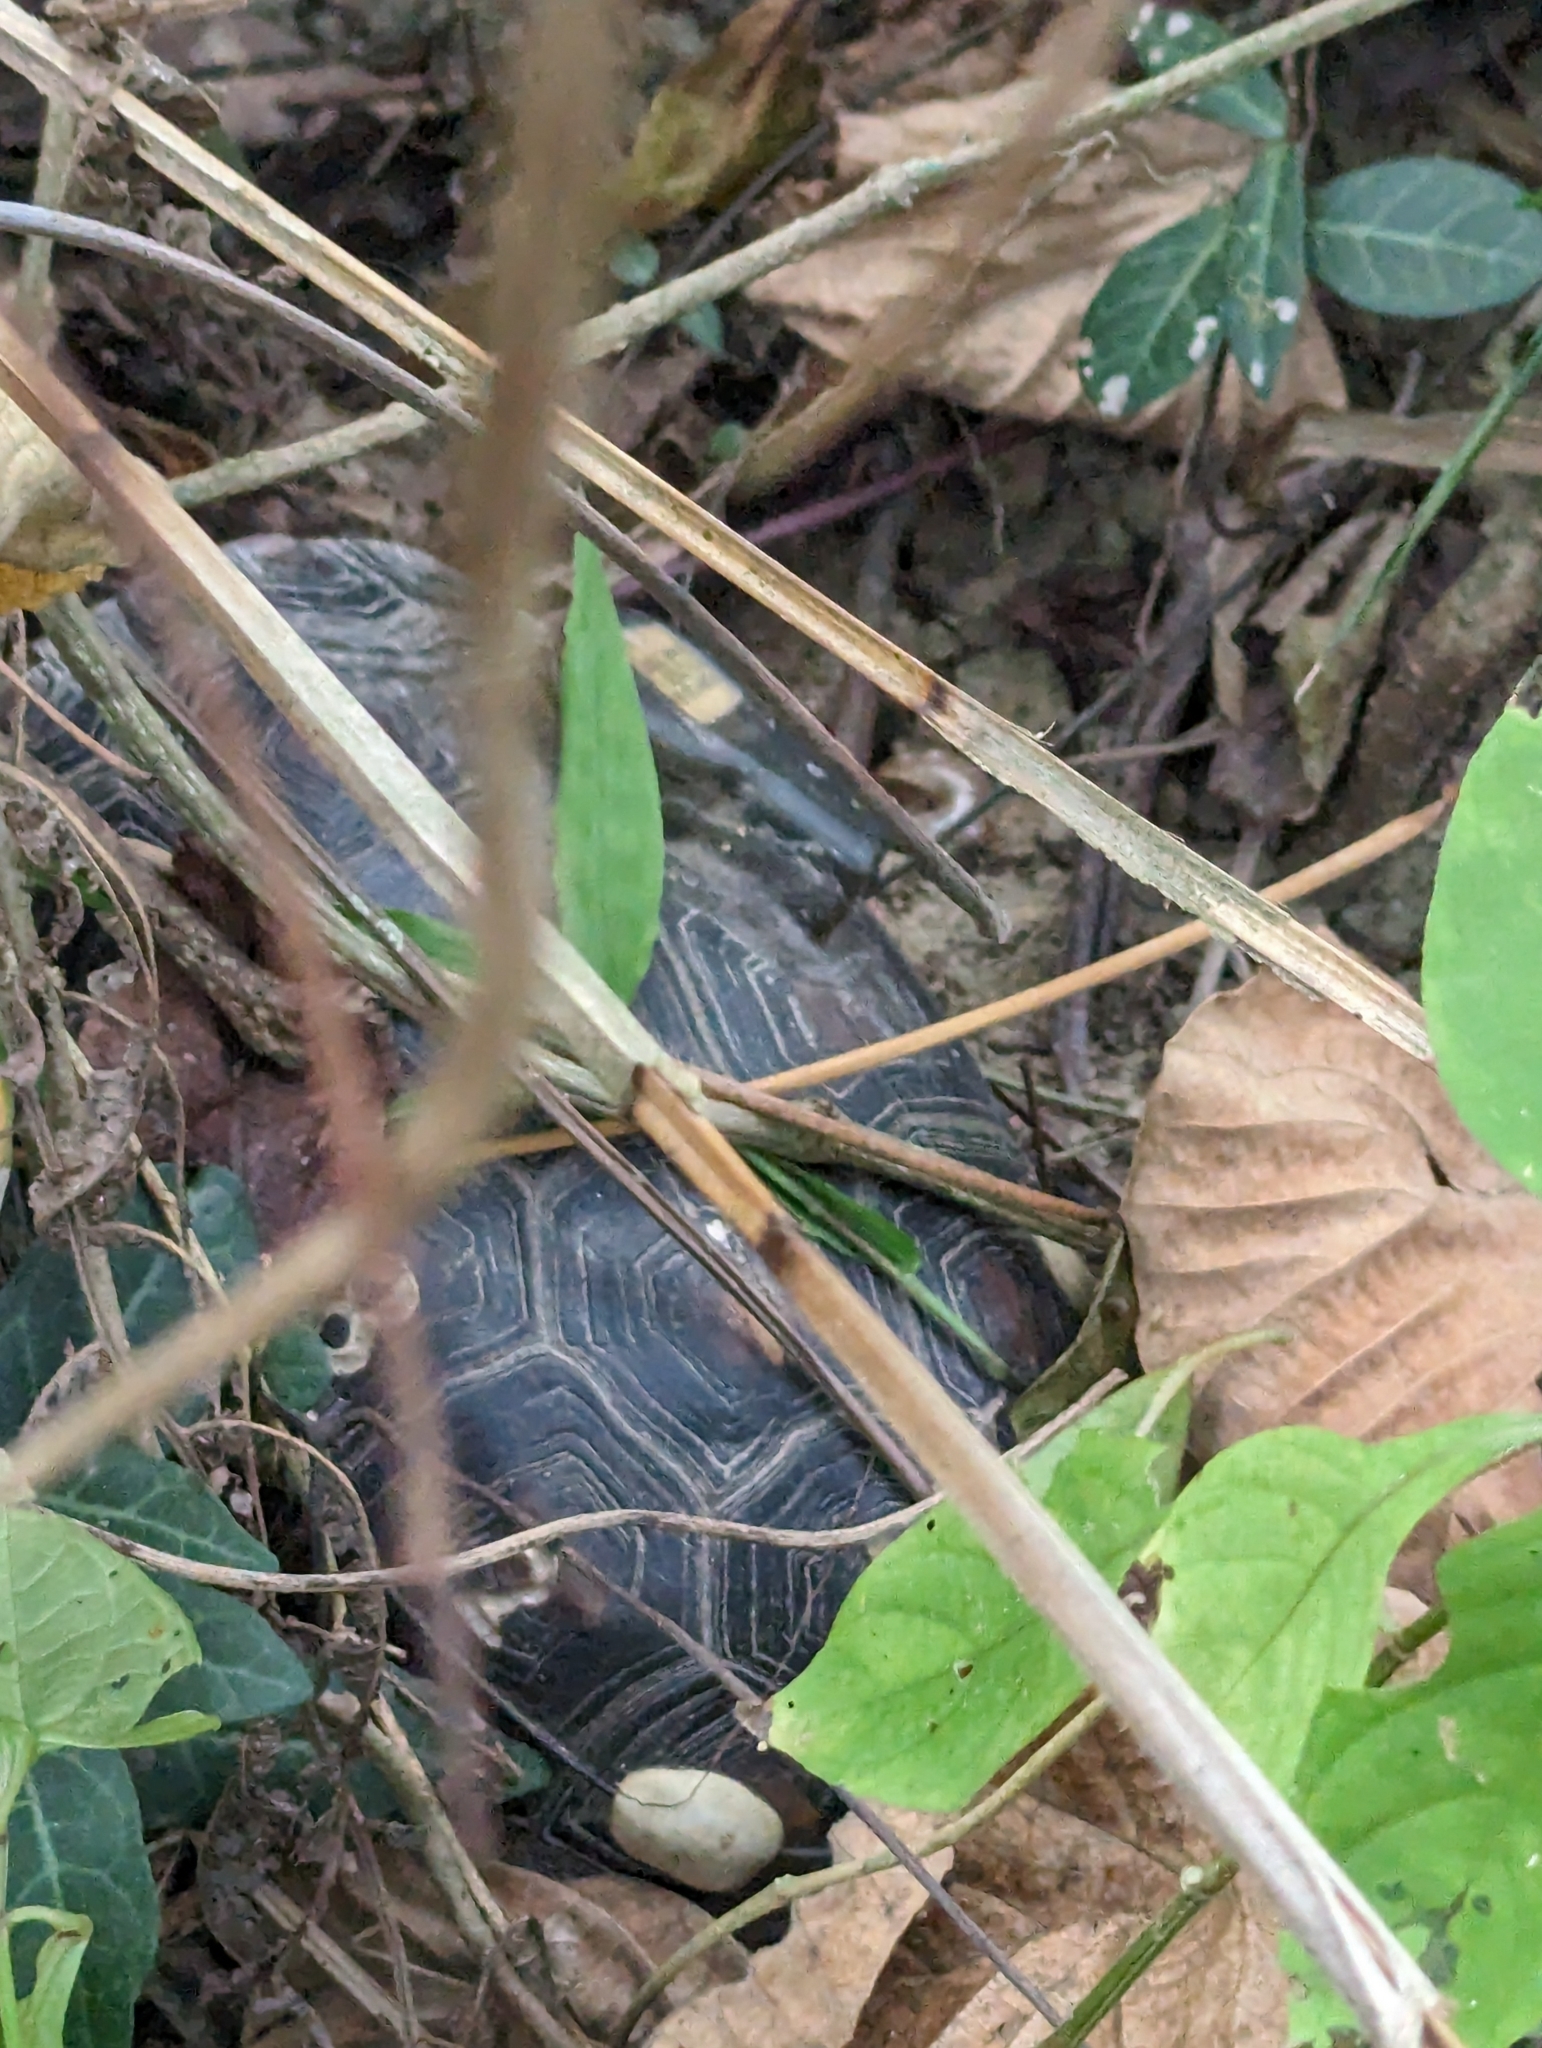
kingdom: Animalia
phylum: Chordata
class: Testudines
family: Geoemydidae
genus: Cuora
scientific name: Cuora flavomarginata
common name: Yellow-margined box turtle
